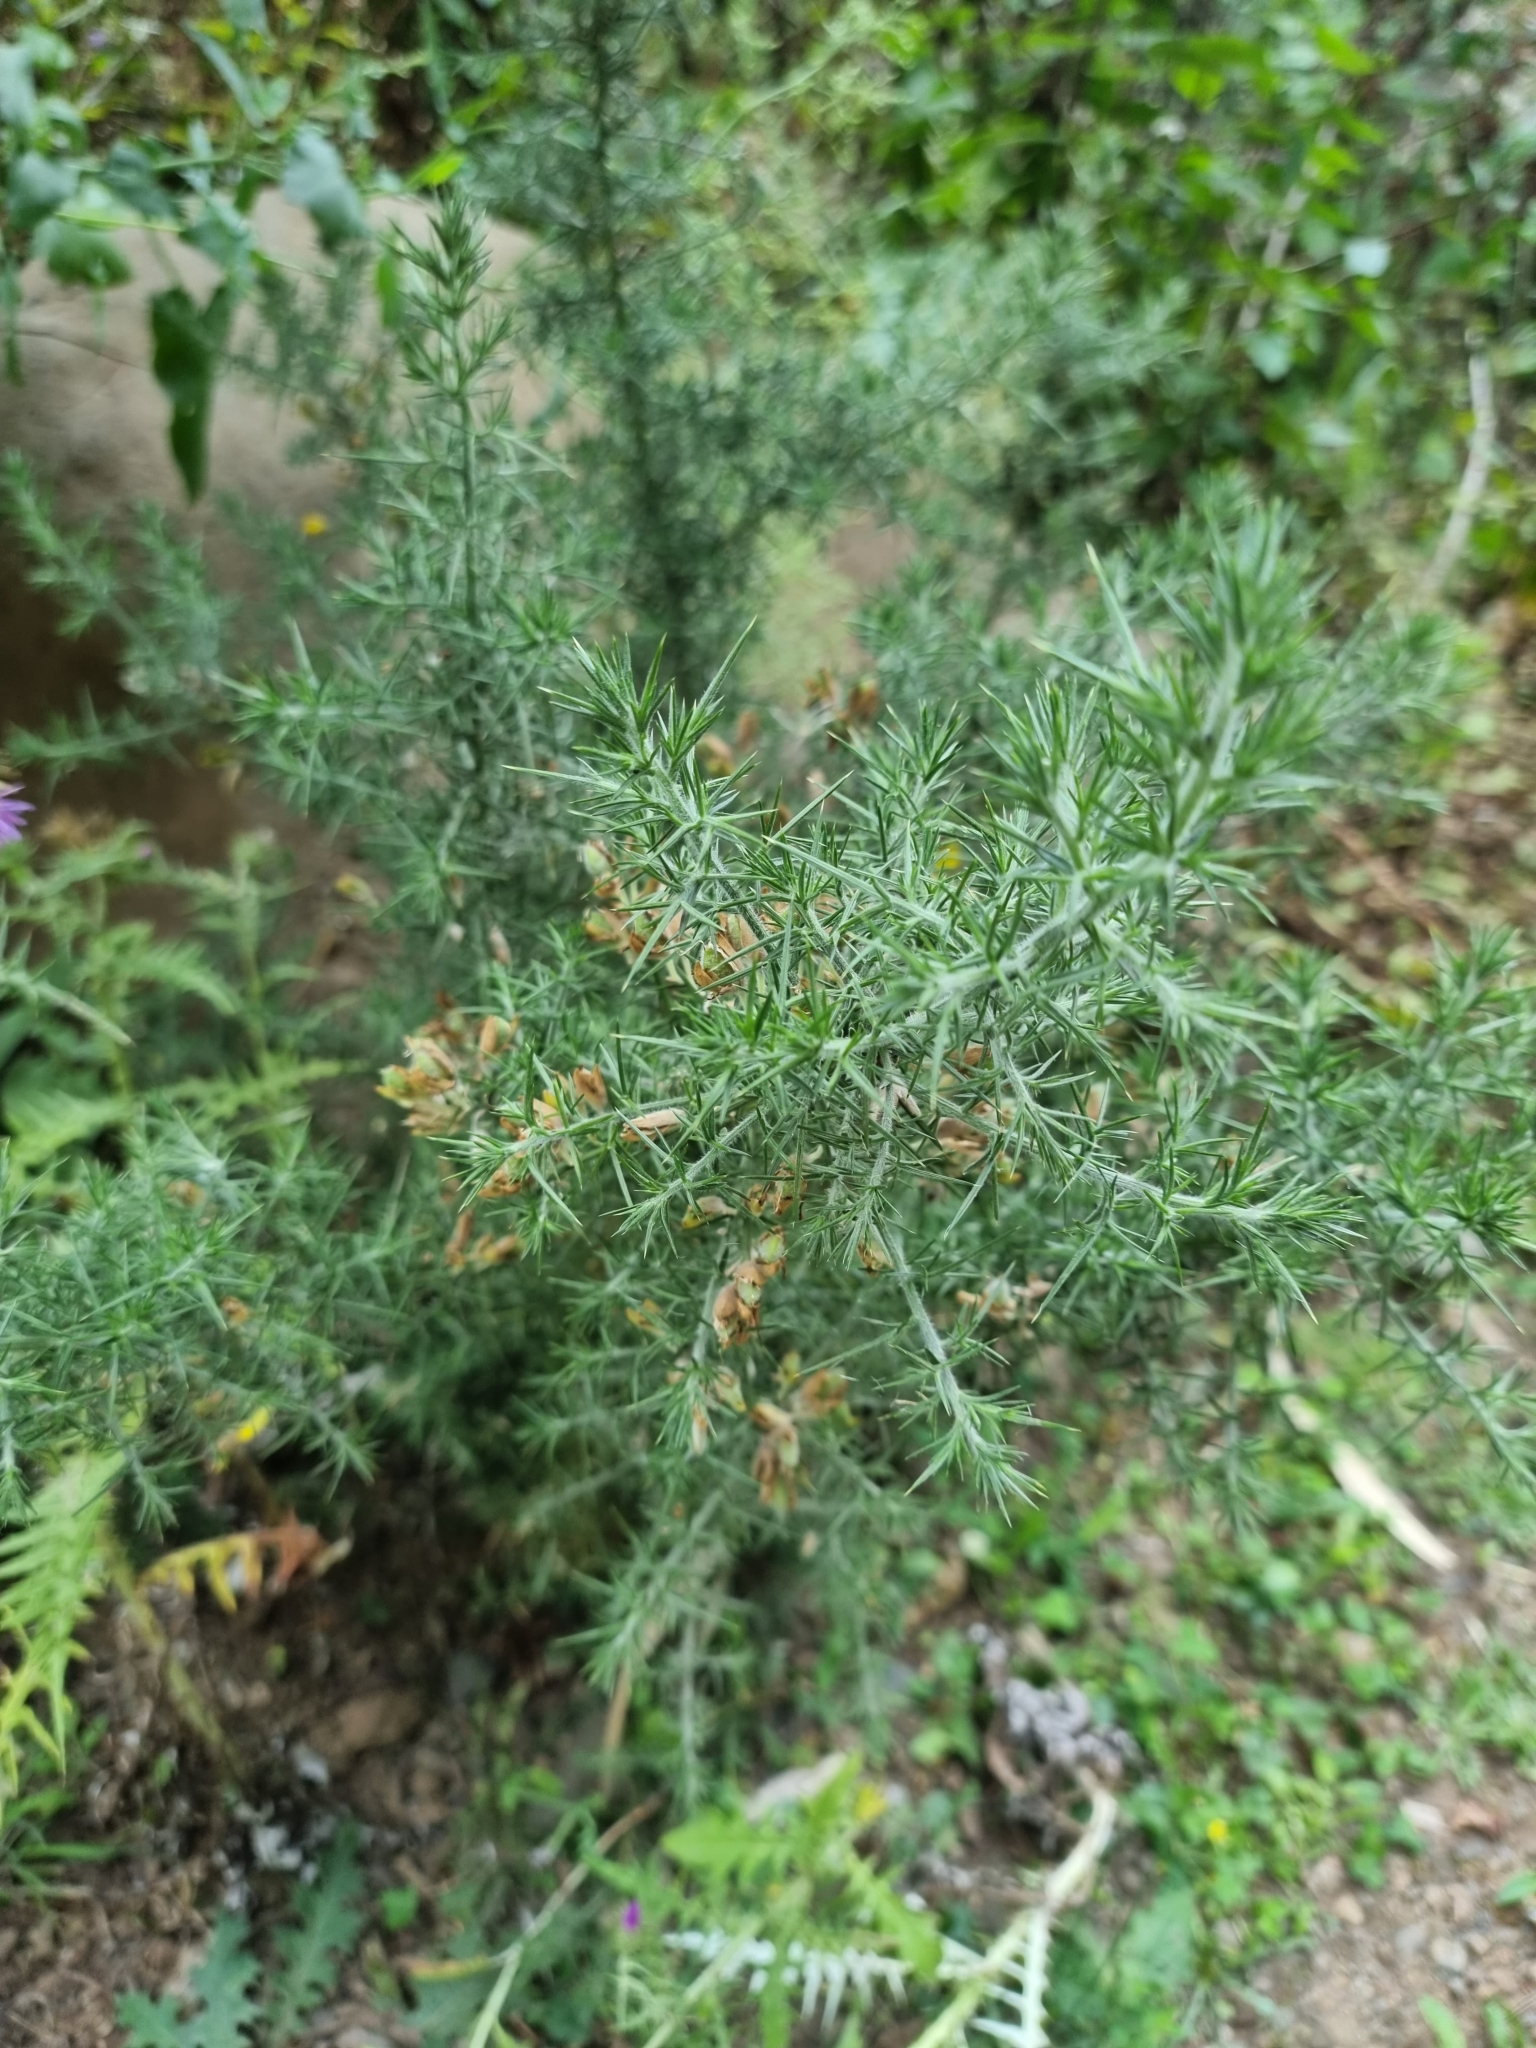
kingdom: Plantae
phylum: Tracheophyta
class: Magnoliopsida
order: Fabales
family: Fabaceae
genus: Ulex
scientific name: Ulex europaeus
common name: Common gorse
